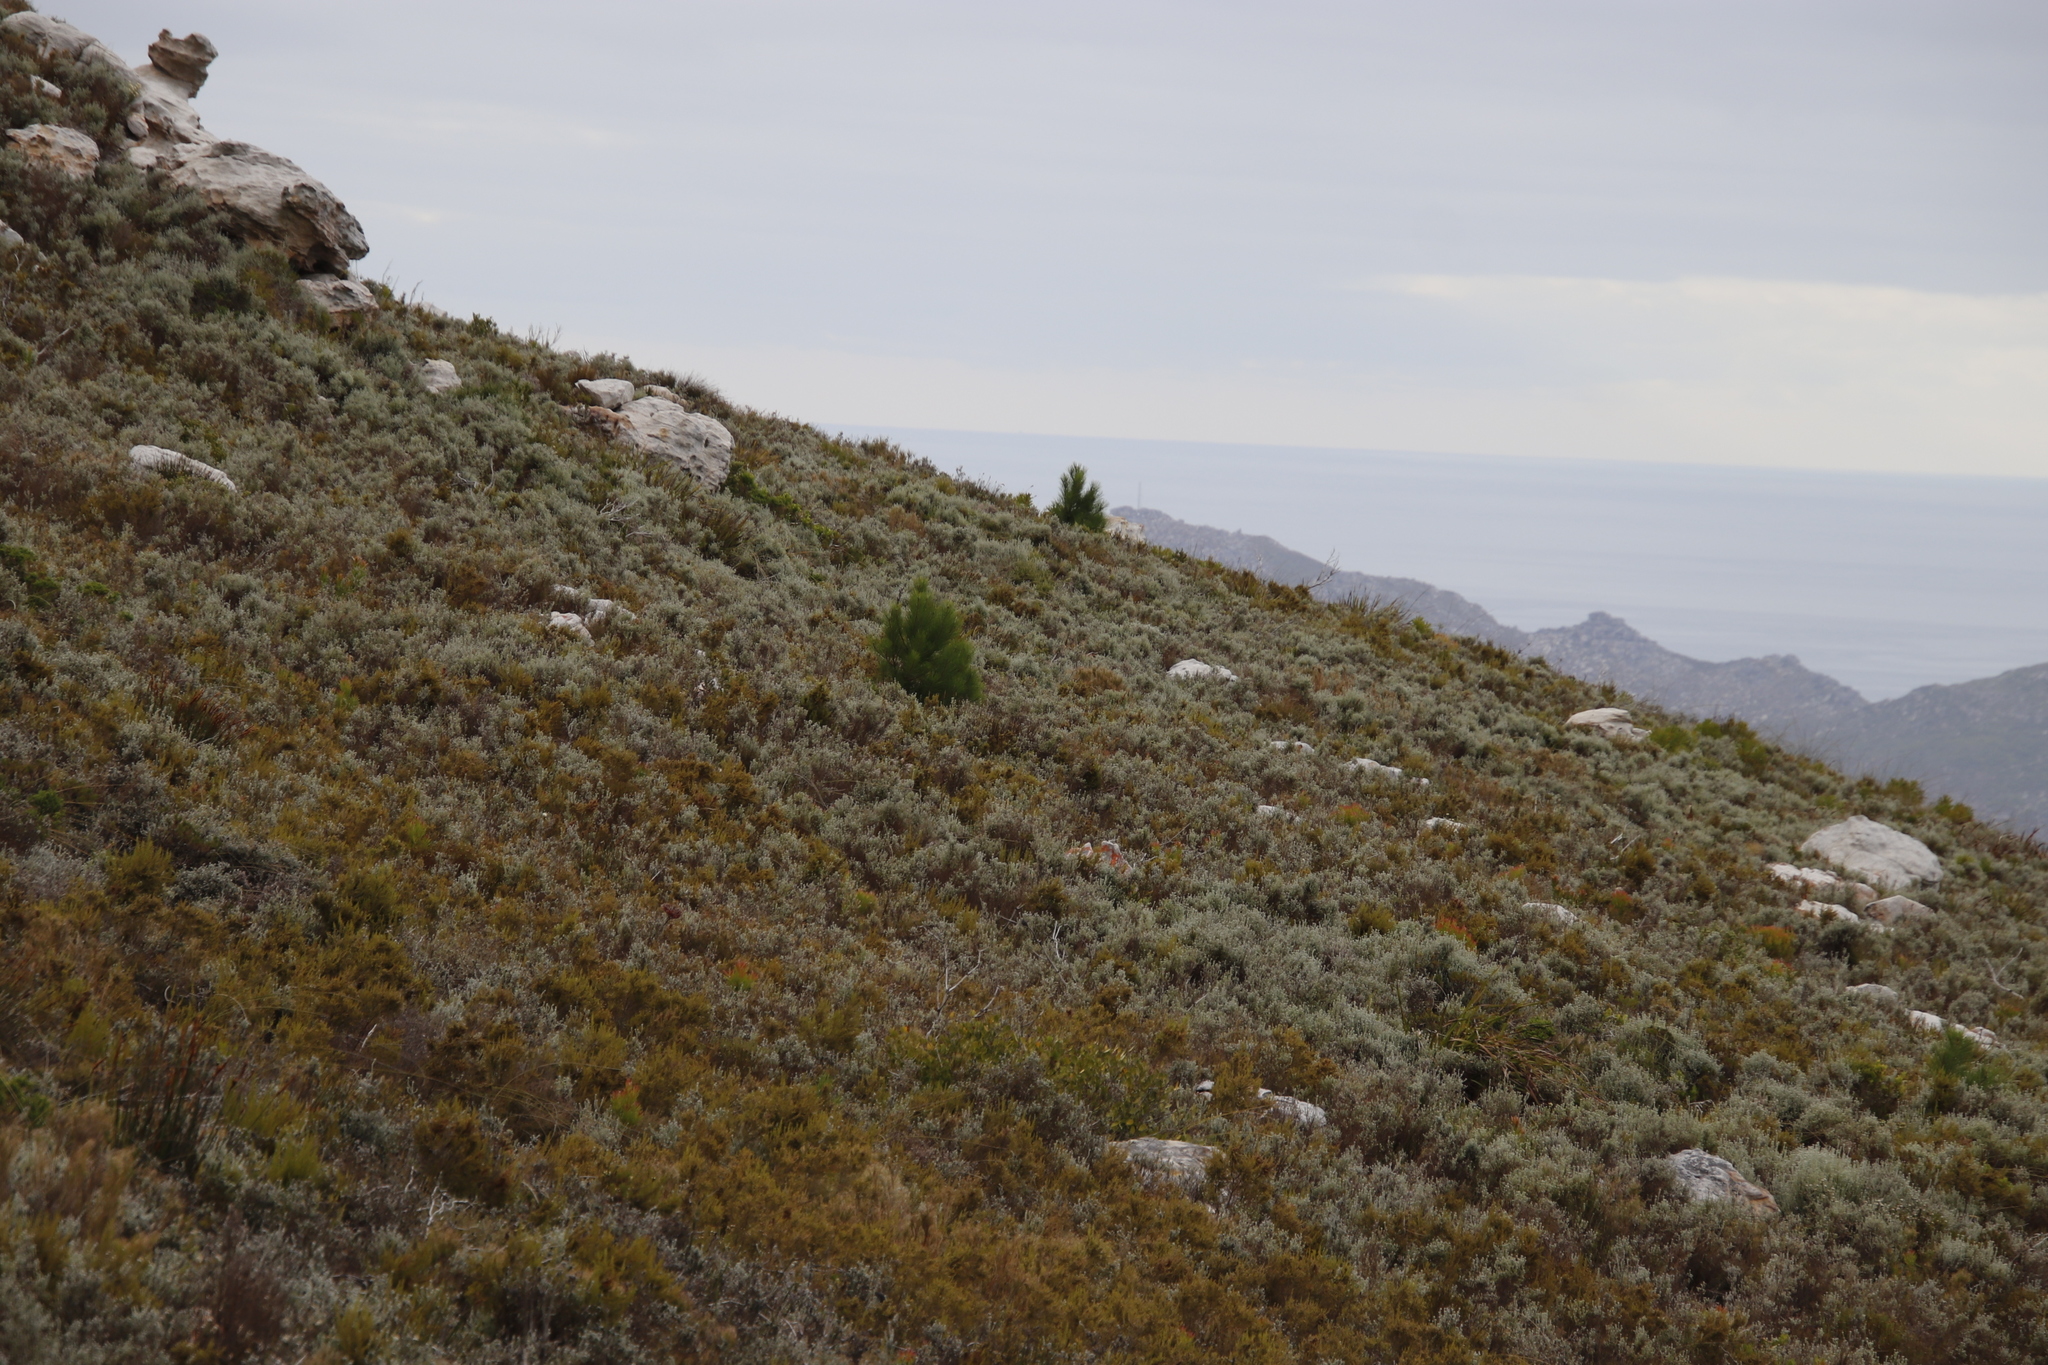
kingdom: Plantae
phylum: Tracheophyta
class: Magnoliopsida
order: Asterales
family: Asteraceae
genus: Seriphium
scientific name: Seriphium spirale
